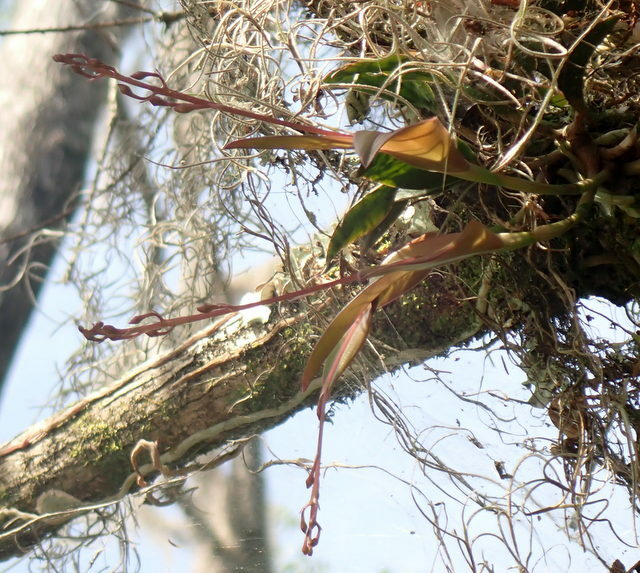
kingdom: Plantae
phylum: Tracheophyta
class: Liliopsida
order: Asparagales
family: Orchidaceae
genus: Epidendrum
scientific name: Epidendrum conopseum
